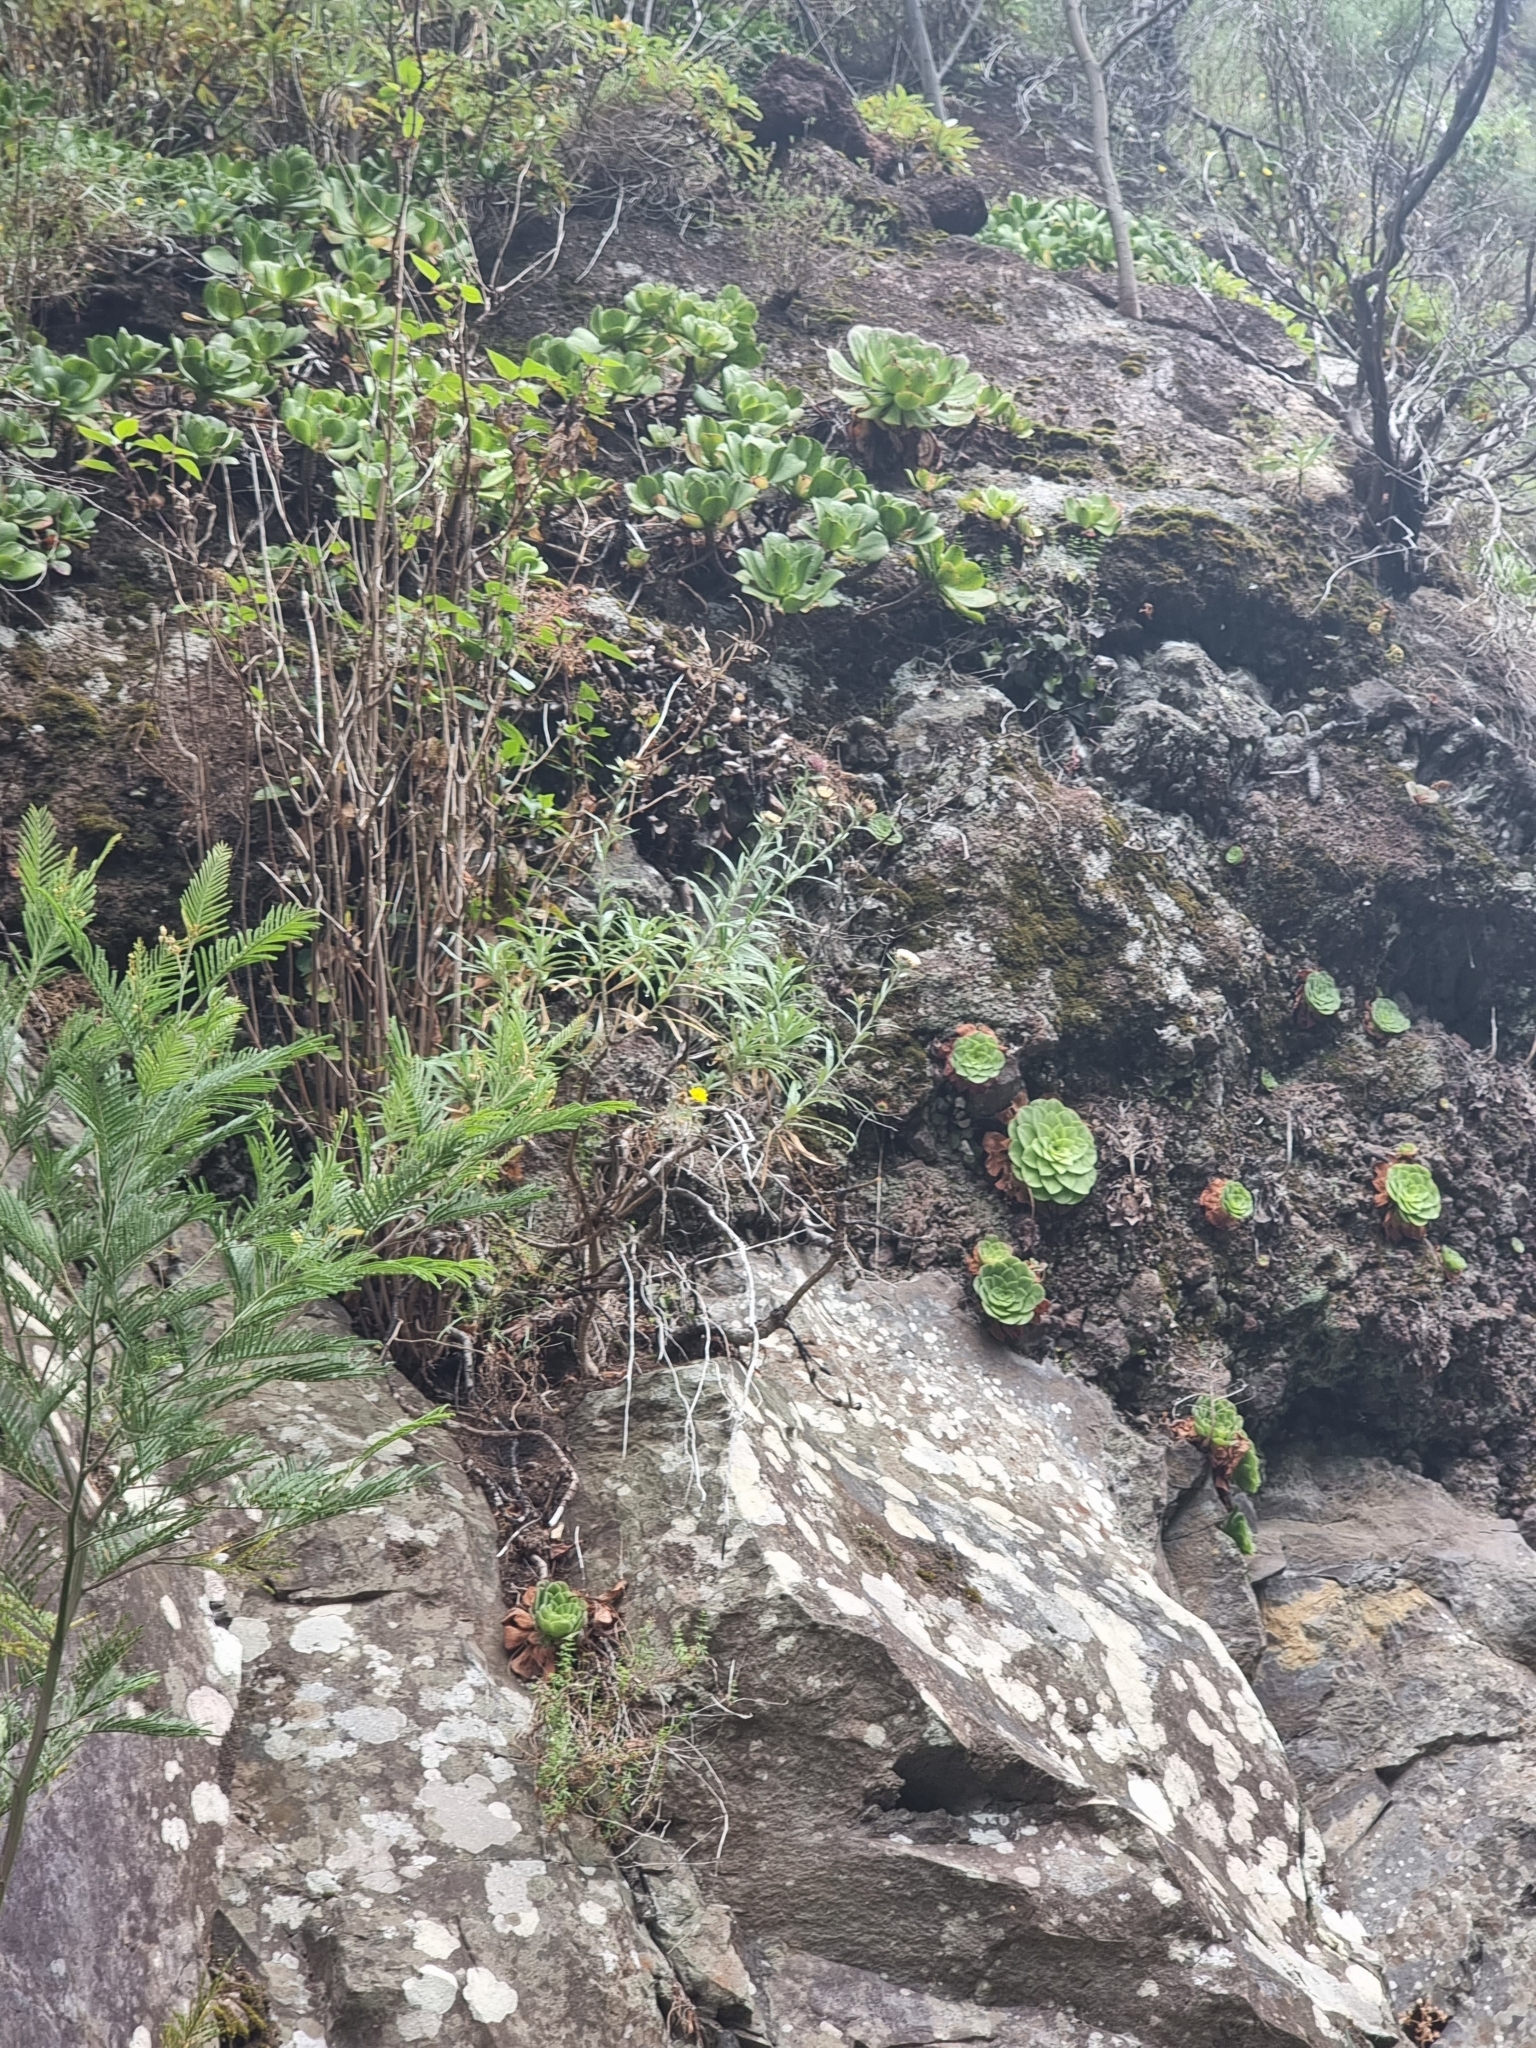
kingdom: Plantae
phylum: Tracheophyta
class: Magnoliopsida
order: Saxifragales
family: Crassulaceae
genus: Aeonium
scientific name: Aeonium glandulosum
